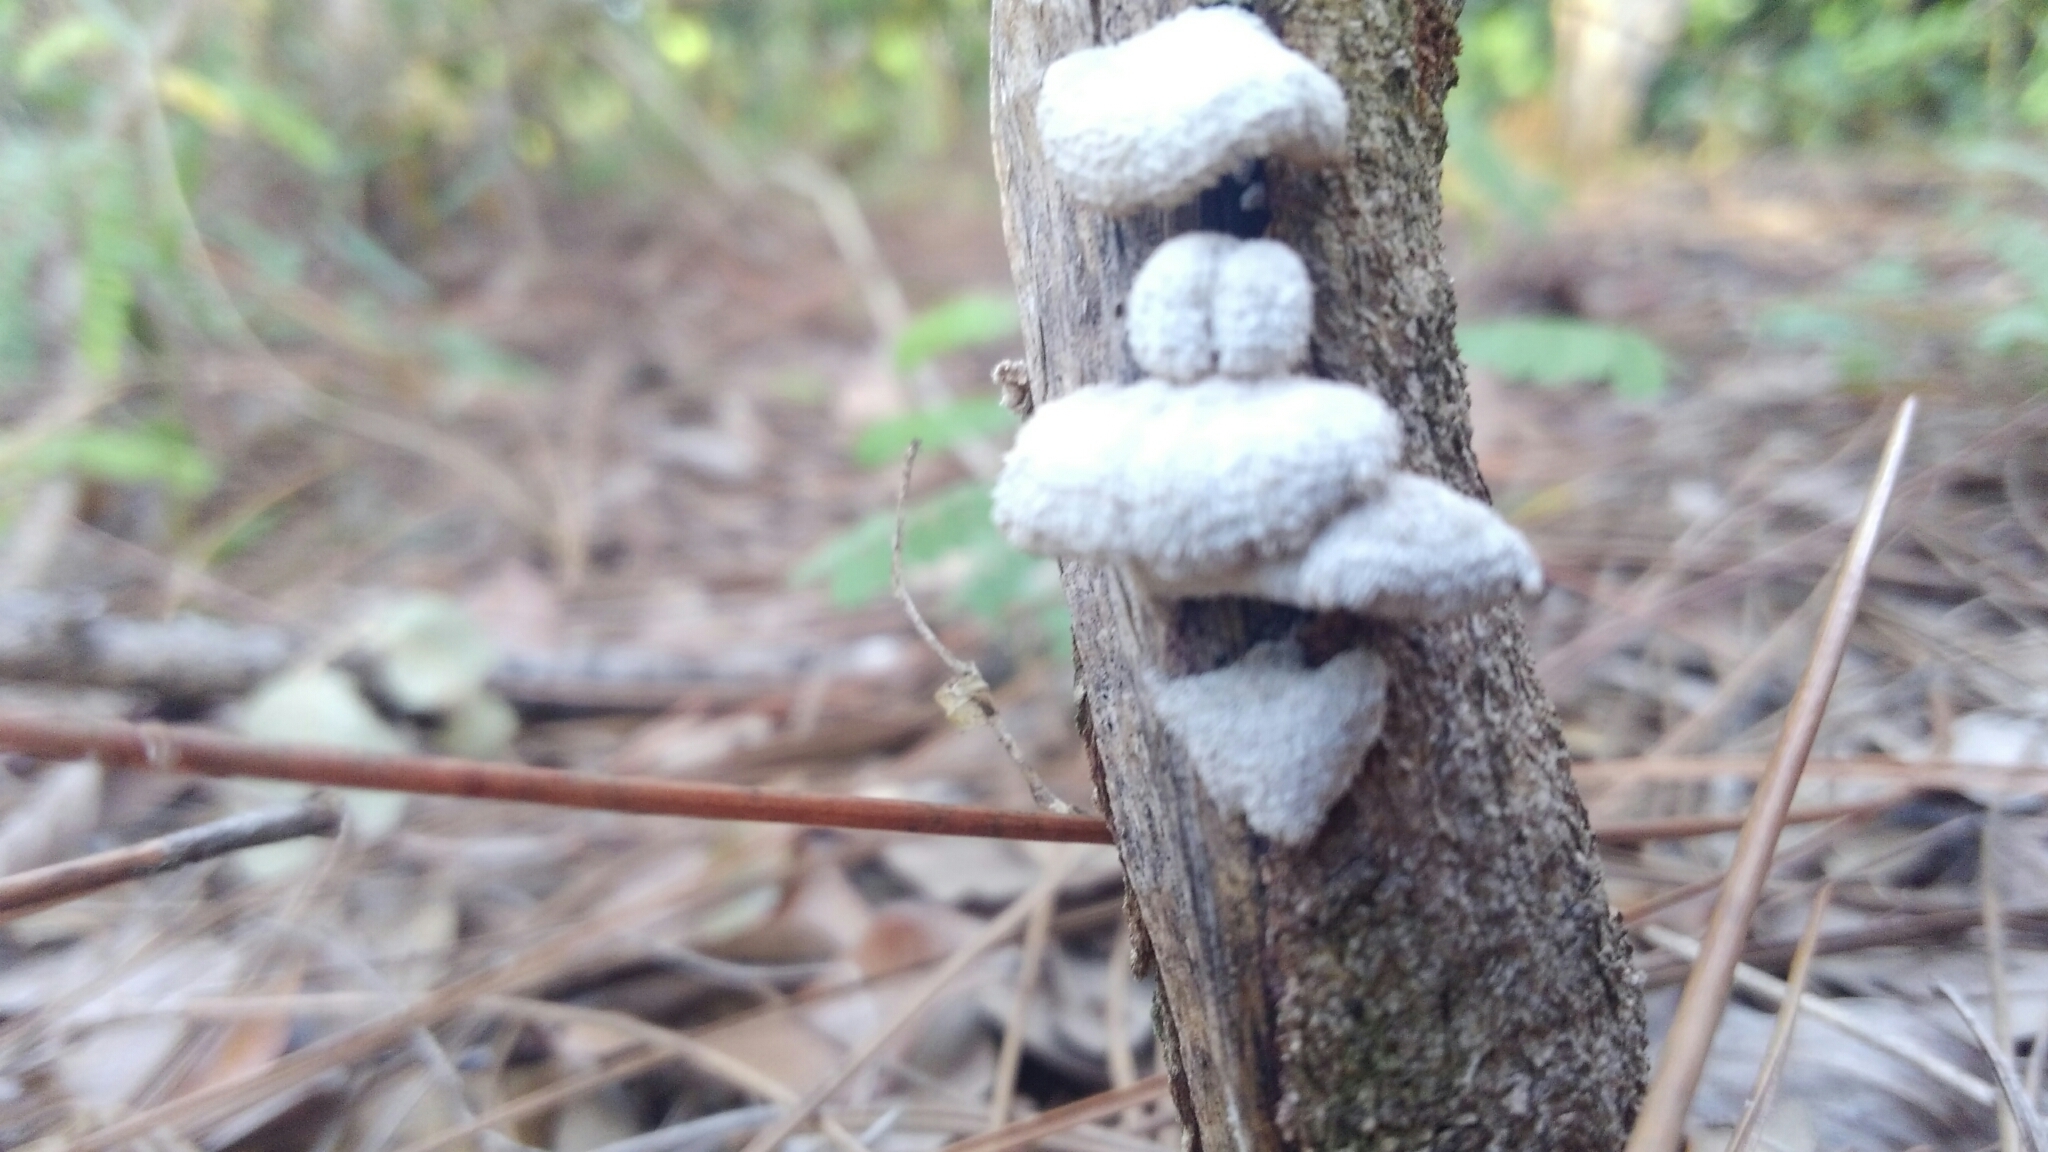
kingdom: Fungi
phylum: Basidiomycota
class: Agaricomycetes
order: Agaricales
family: Schizophyllaceae
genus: Schizophyllum
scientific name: Schizophyllum commune
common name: Common porecrust
